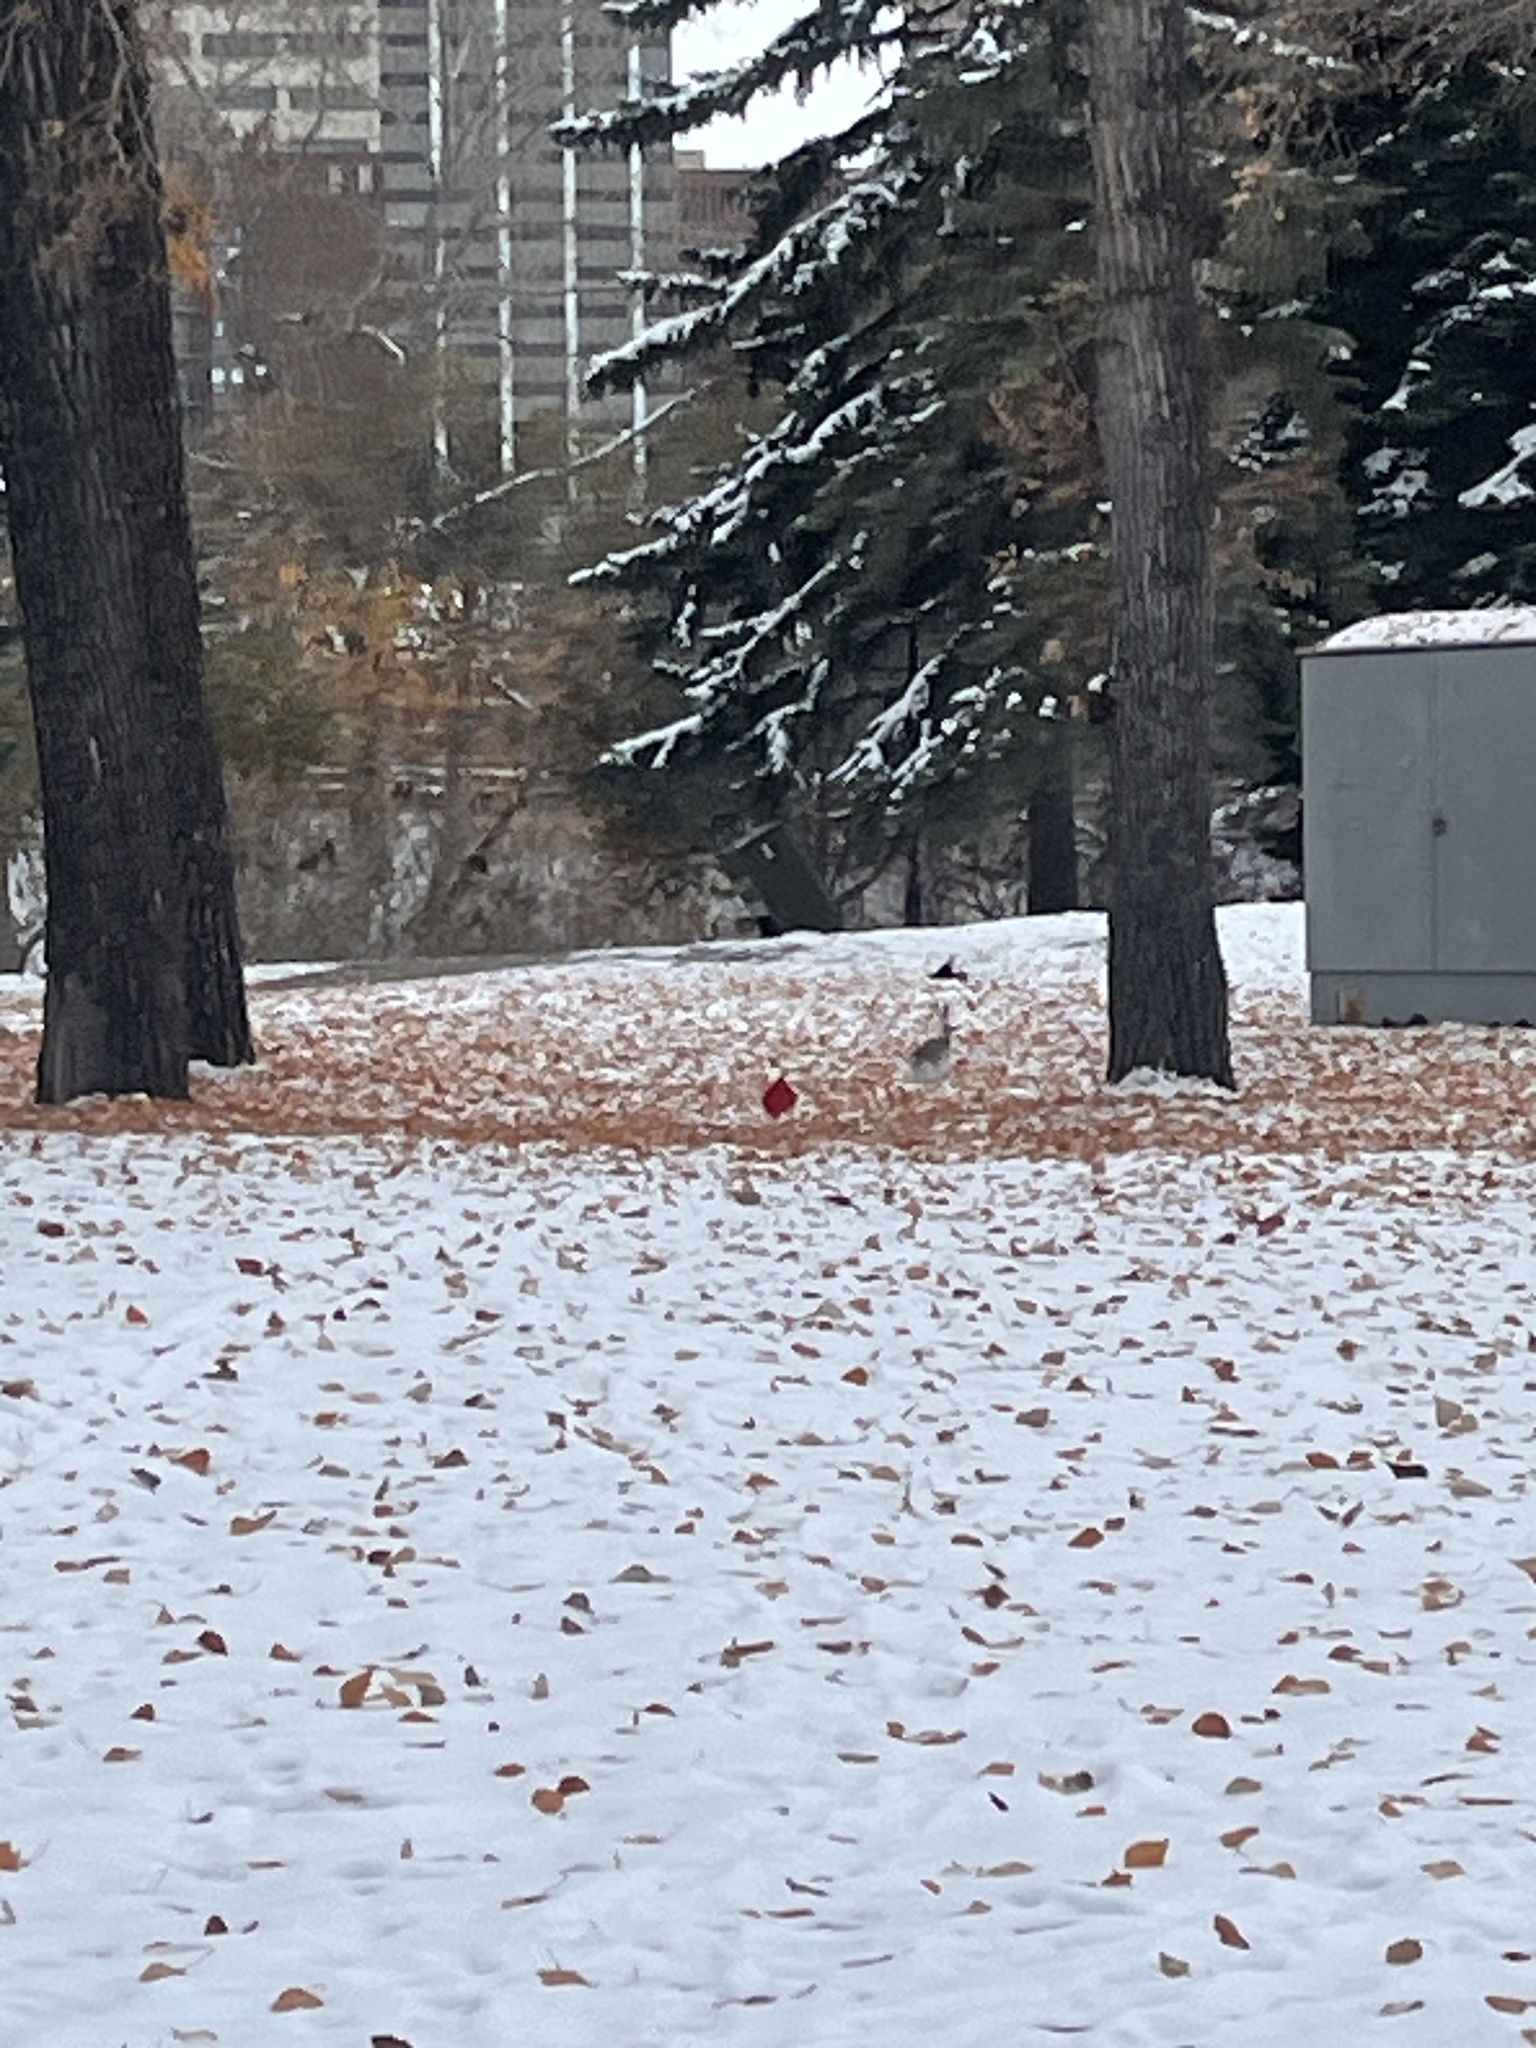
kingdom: Animalia
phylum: Chordata
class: Mammalia
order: Lagomorpha
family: Leporidae
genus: Lepus
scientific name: Lepus townsendii
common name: White-tailed jackrabbit
